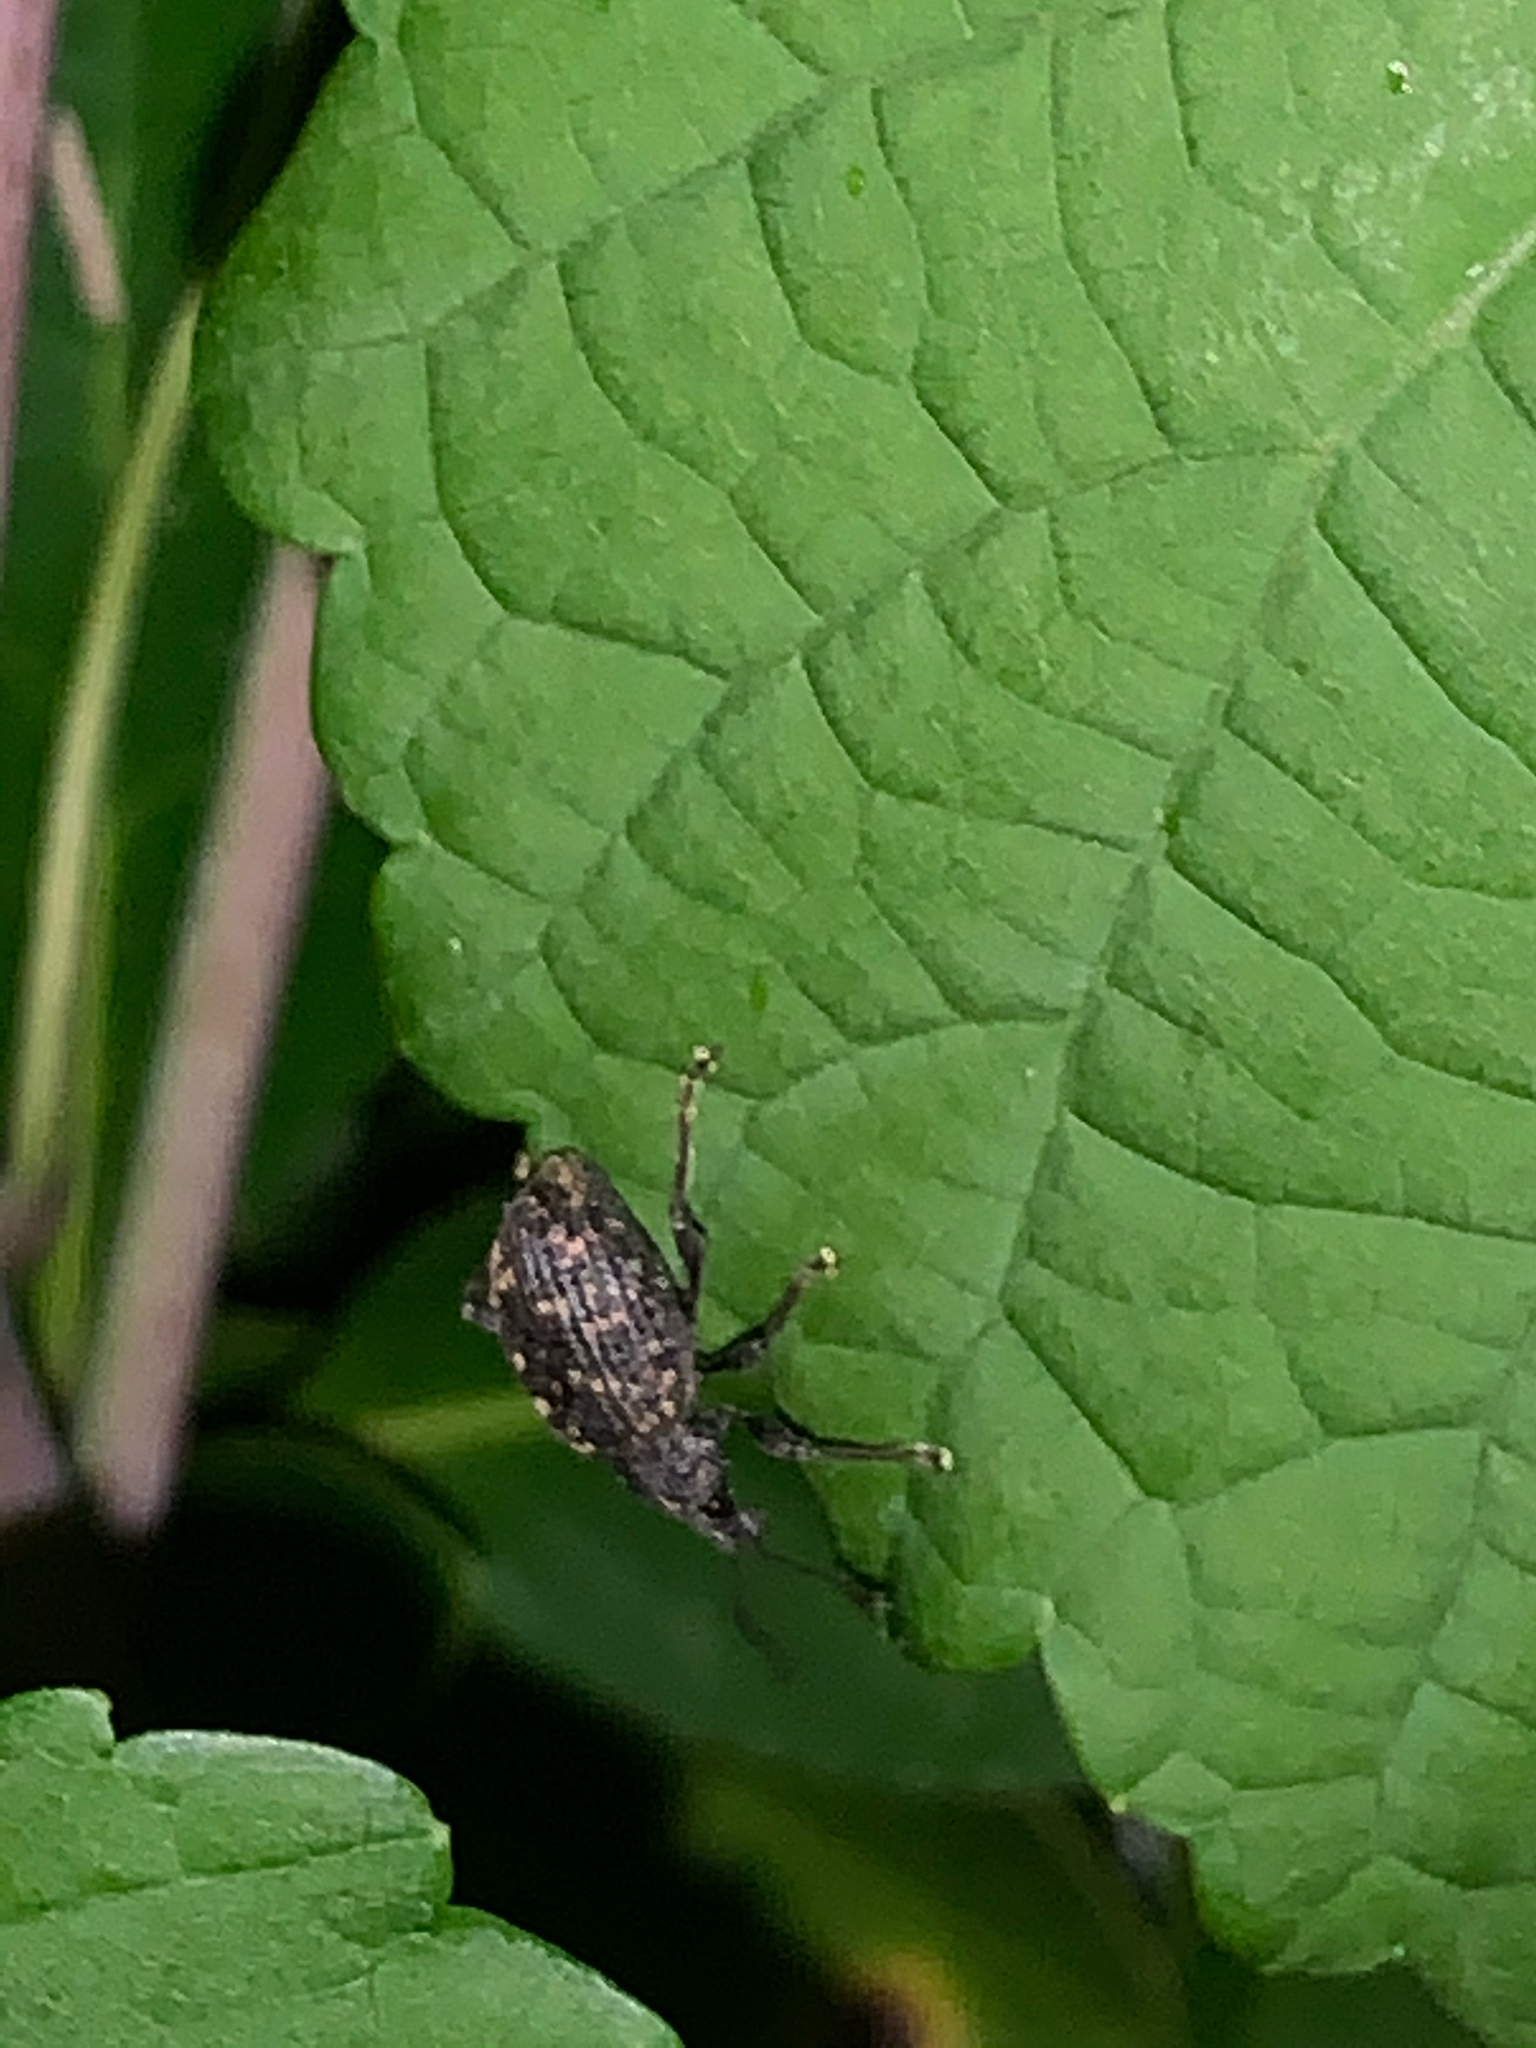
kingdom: Animalia
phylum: Arthropoda
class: Insecta
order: Coleoptera
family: Curculionidae
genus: Otiorhynchus
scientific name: Otiorhynchus sulcatus
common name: Black vine weevil
